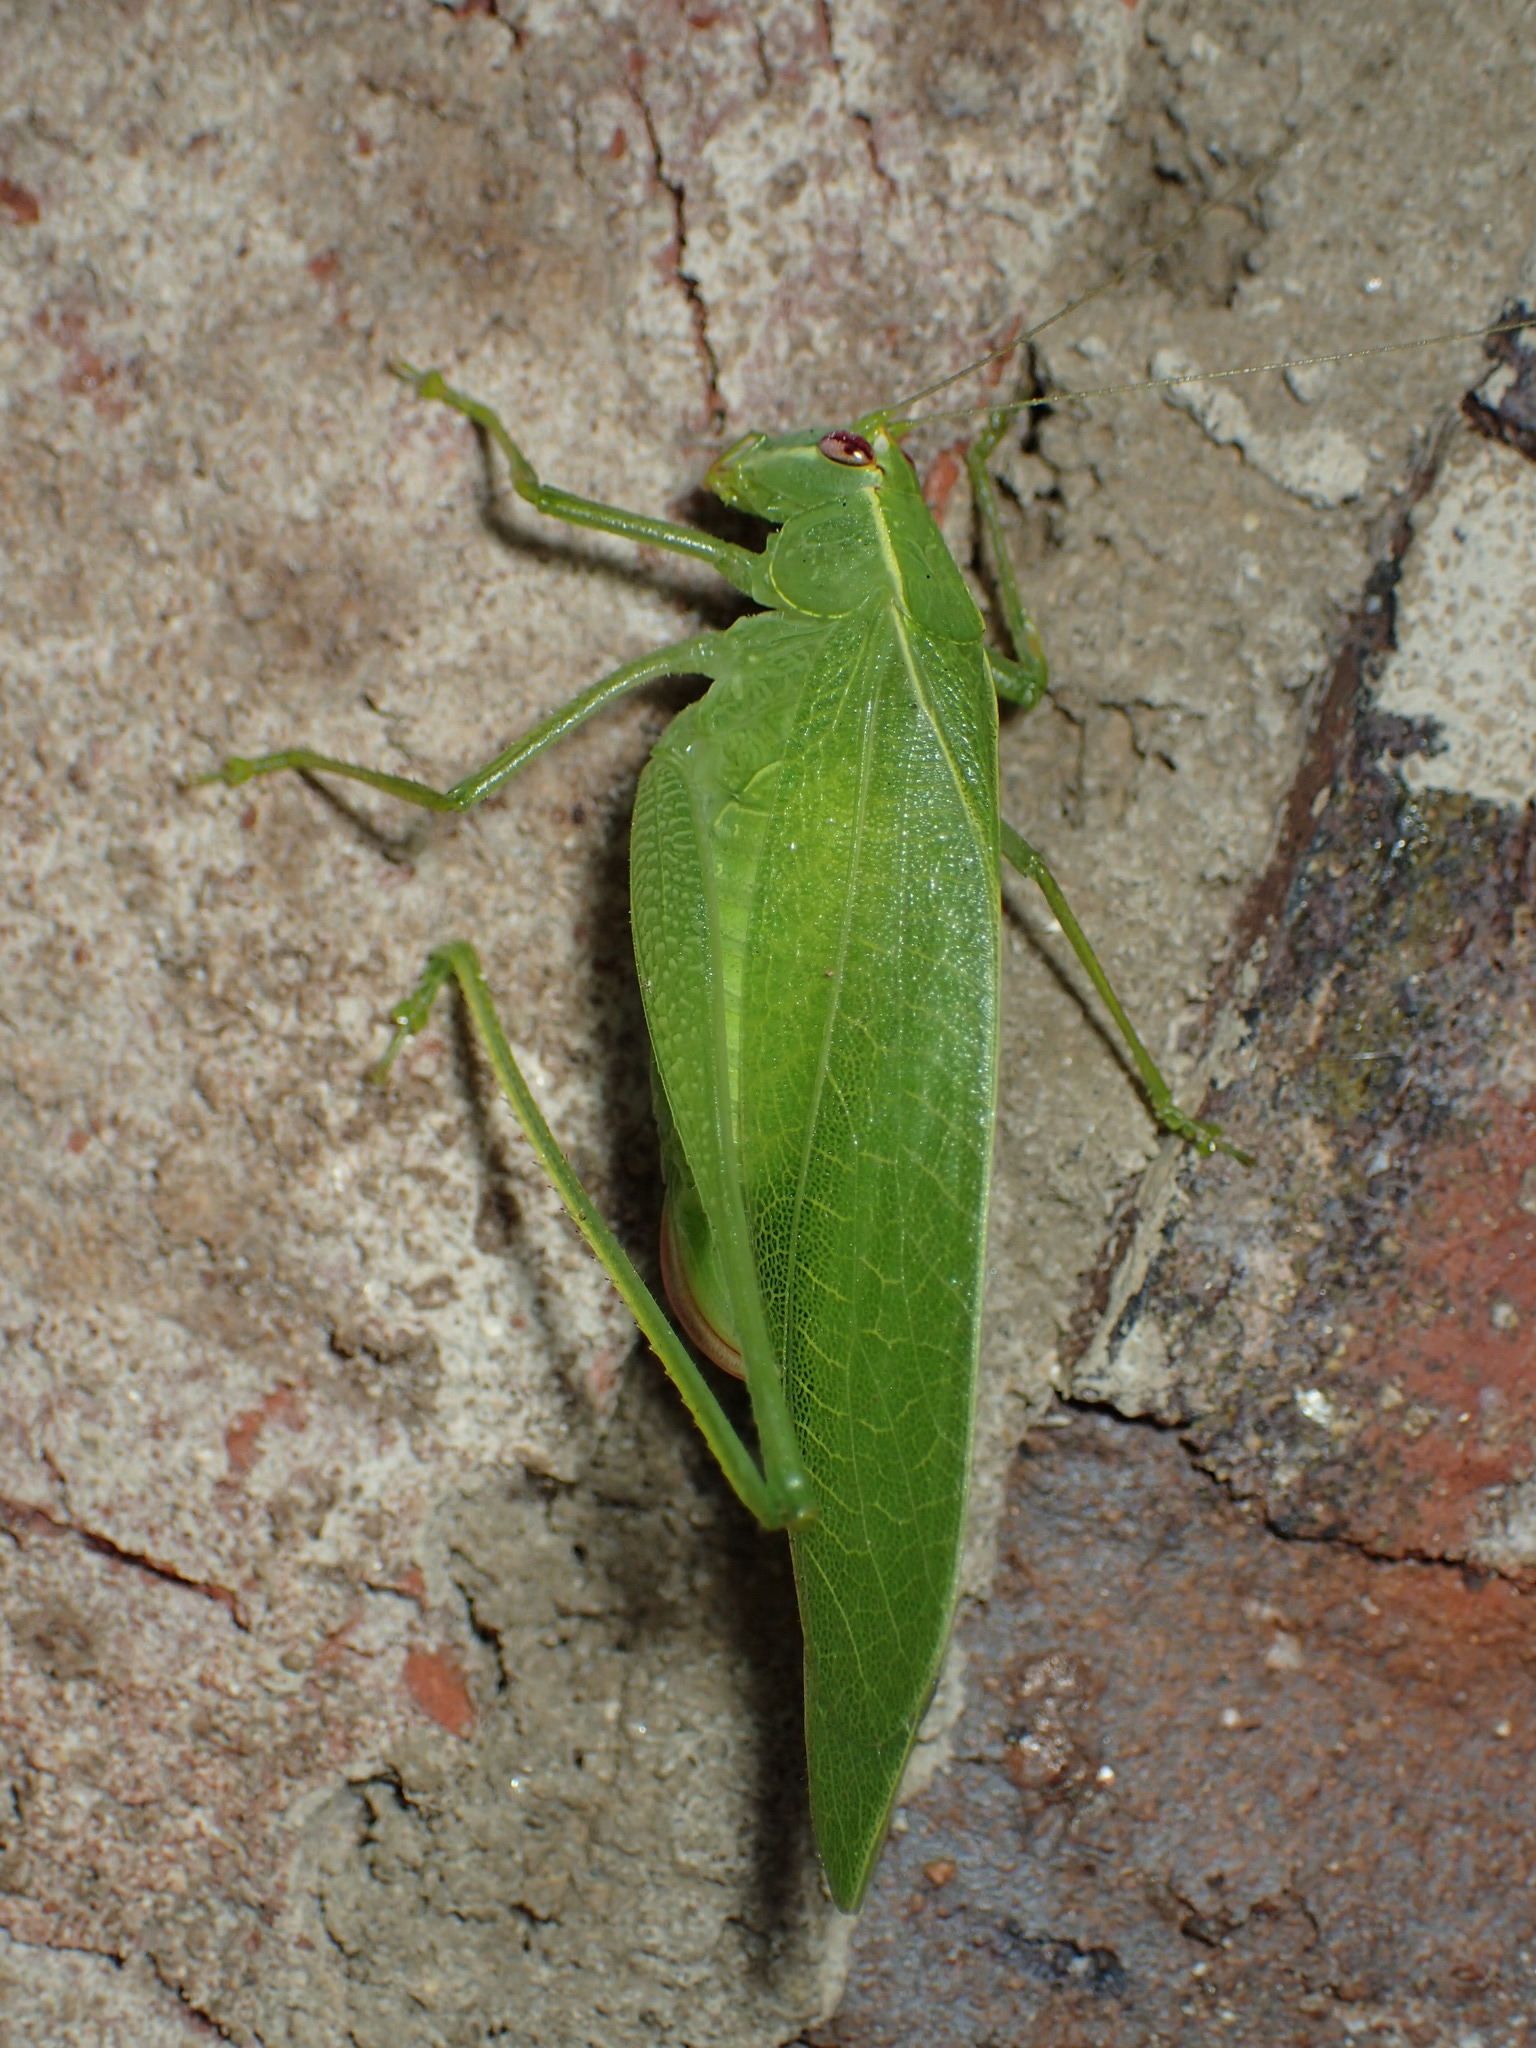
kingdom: Animalia
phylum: Arthropoda
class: Insecta
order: Orthoptera
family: Tettigoniidae
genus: Montezumina
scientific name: Montezumina modesta
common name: Modest katydid
